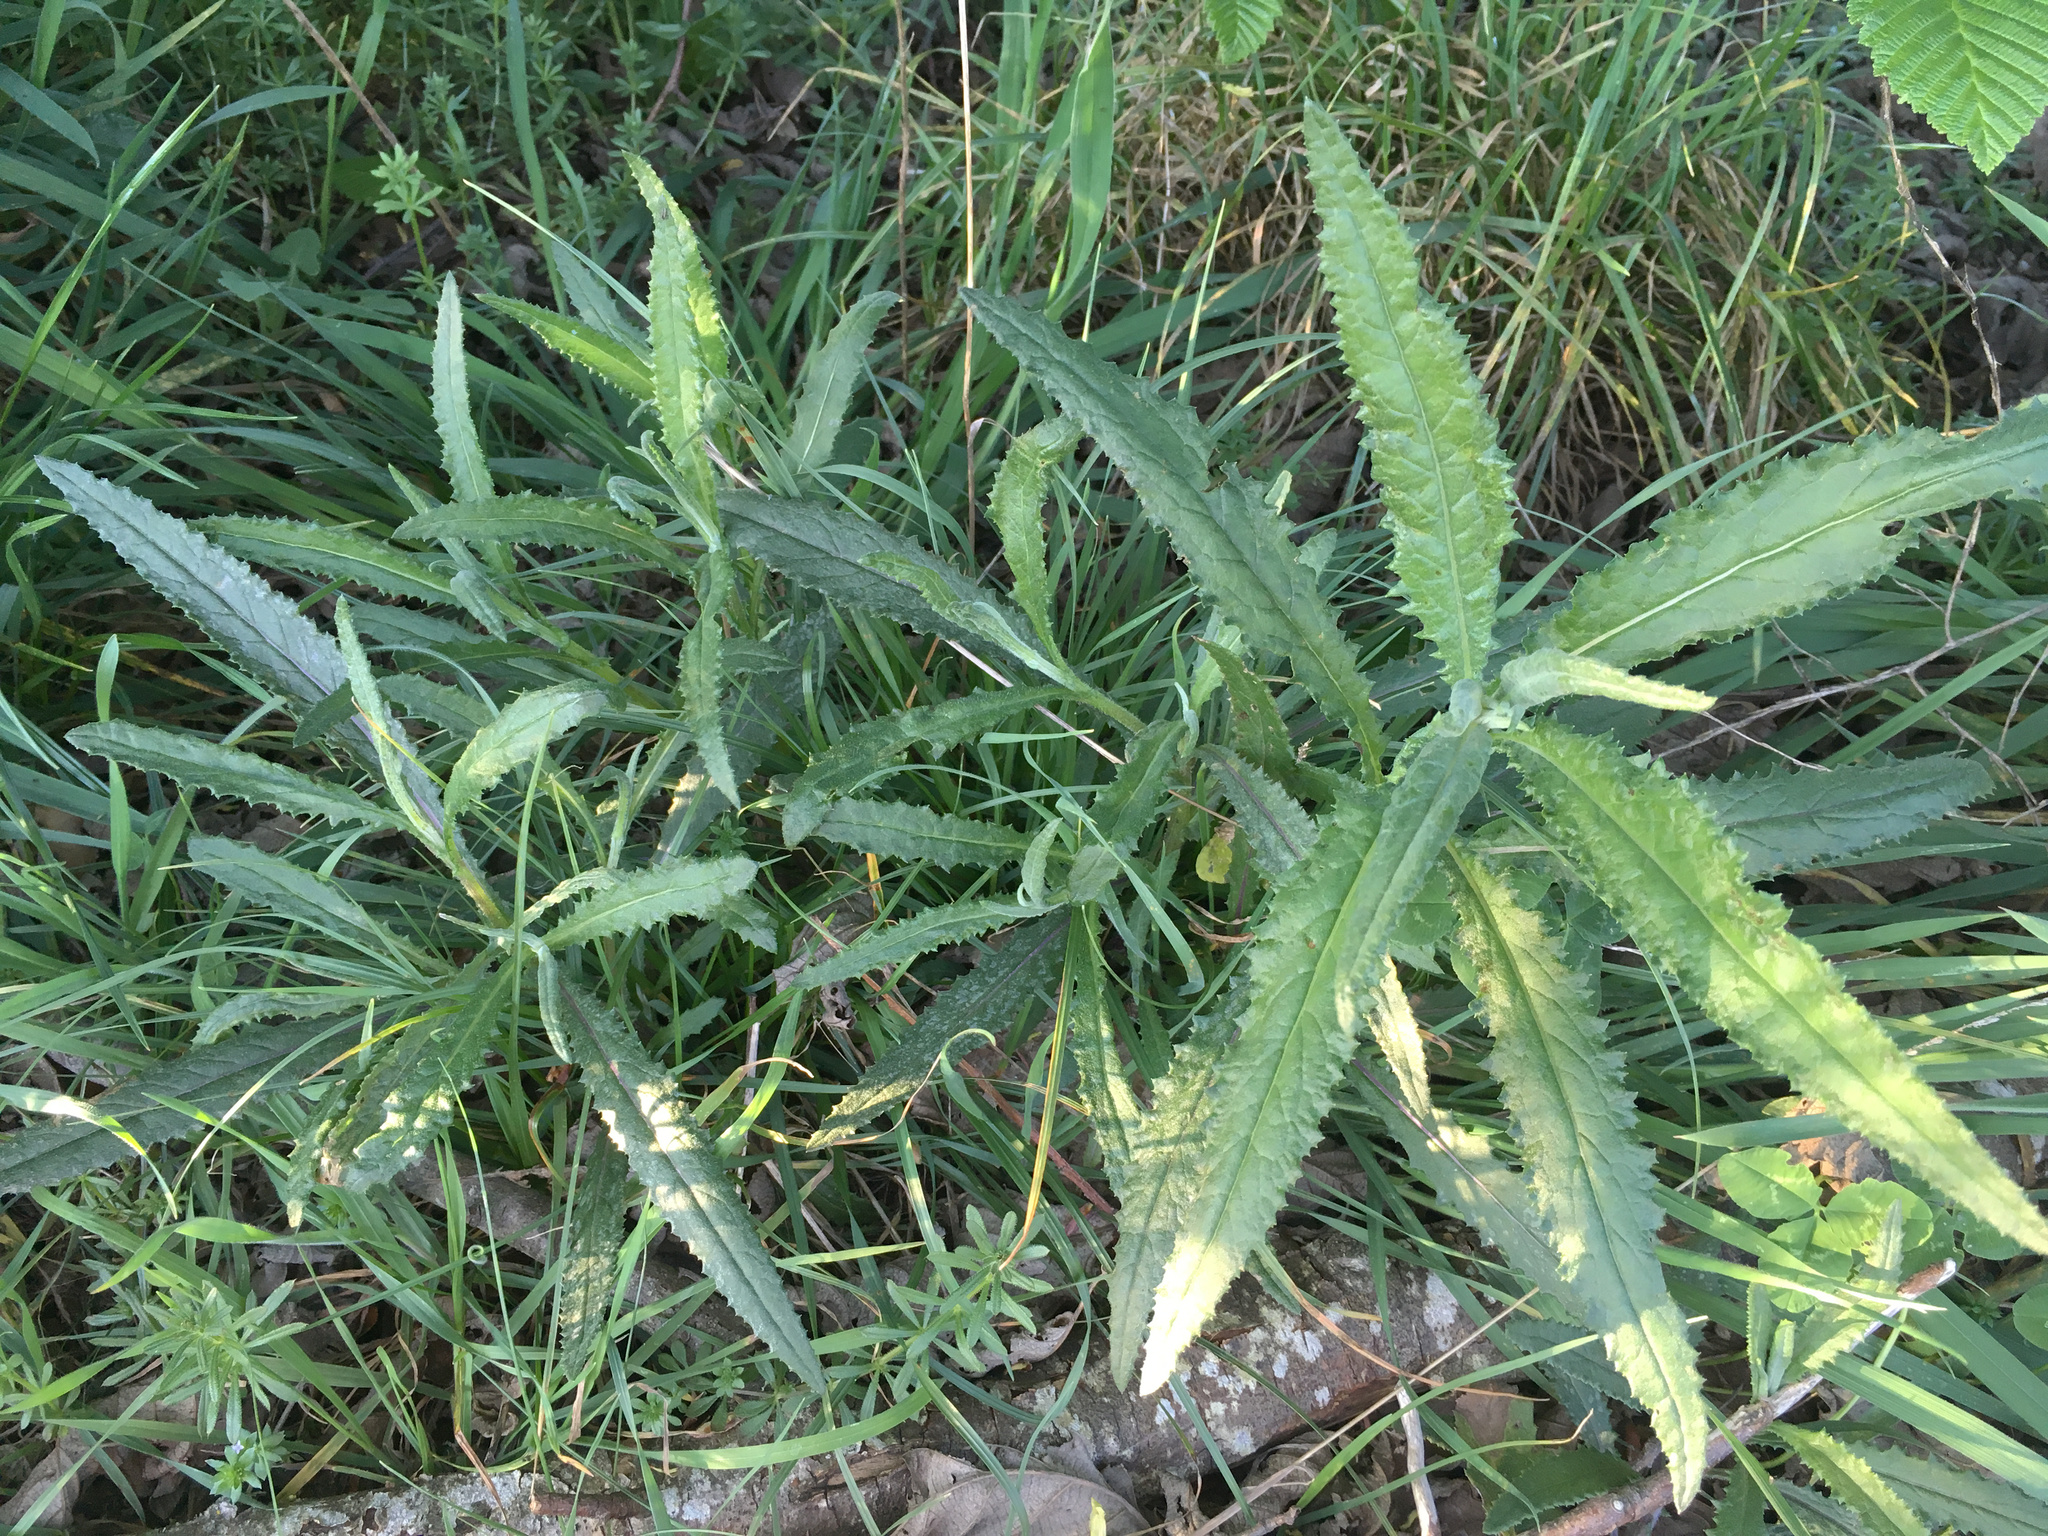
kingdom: Plantae
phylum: Tracheophyta
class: Magnoliopsida
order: Asterales
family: Asteraceae
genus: Senecio
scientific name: Senecio minimus
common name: Toothed fireweed
